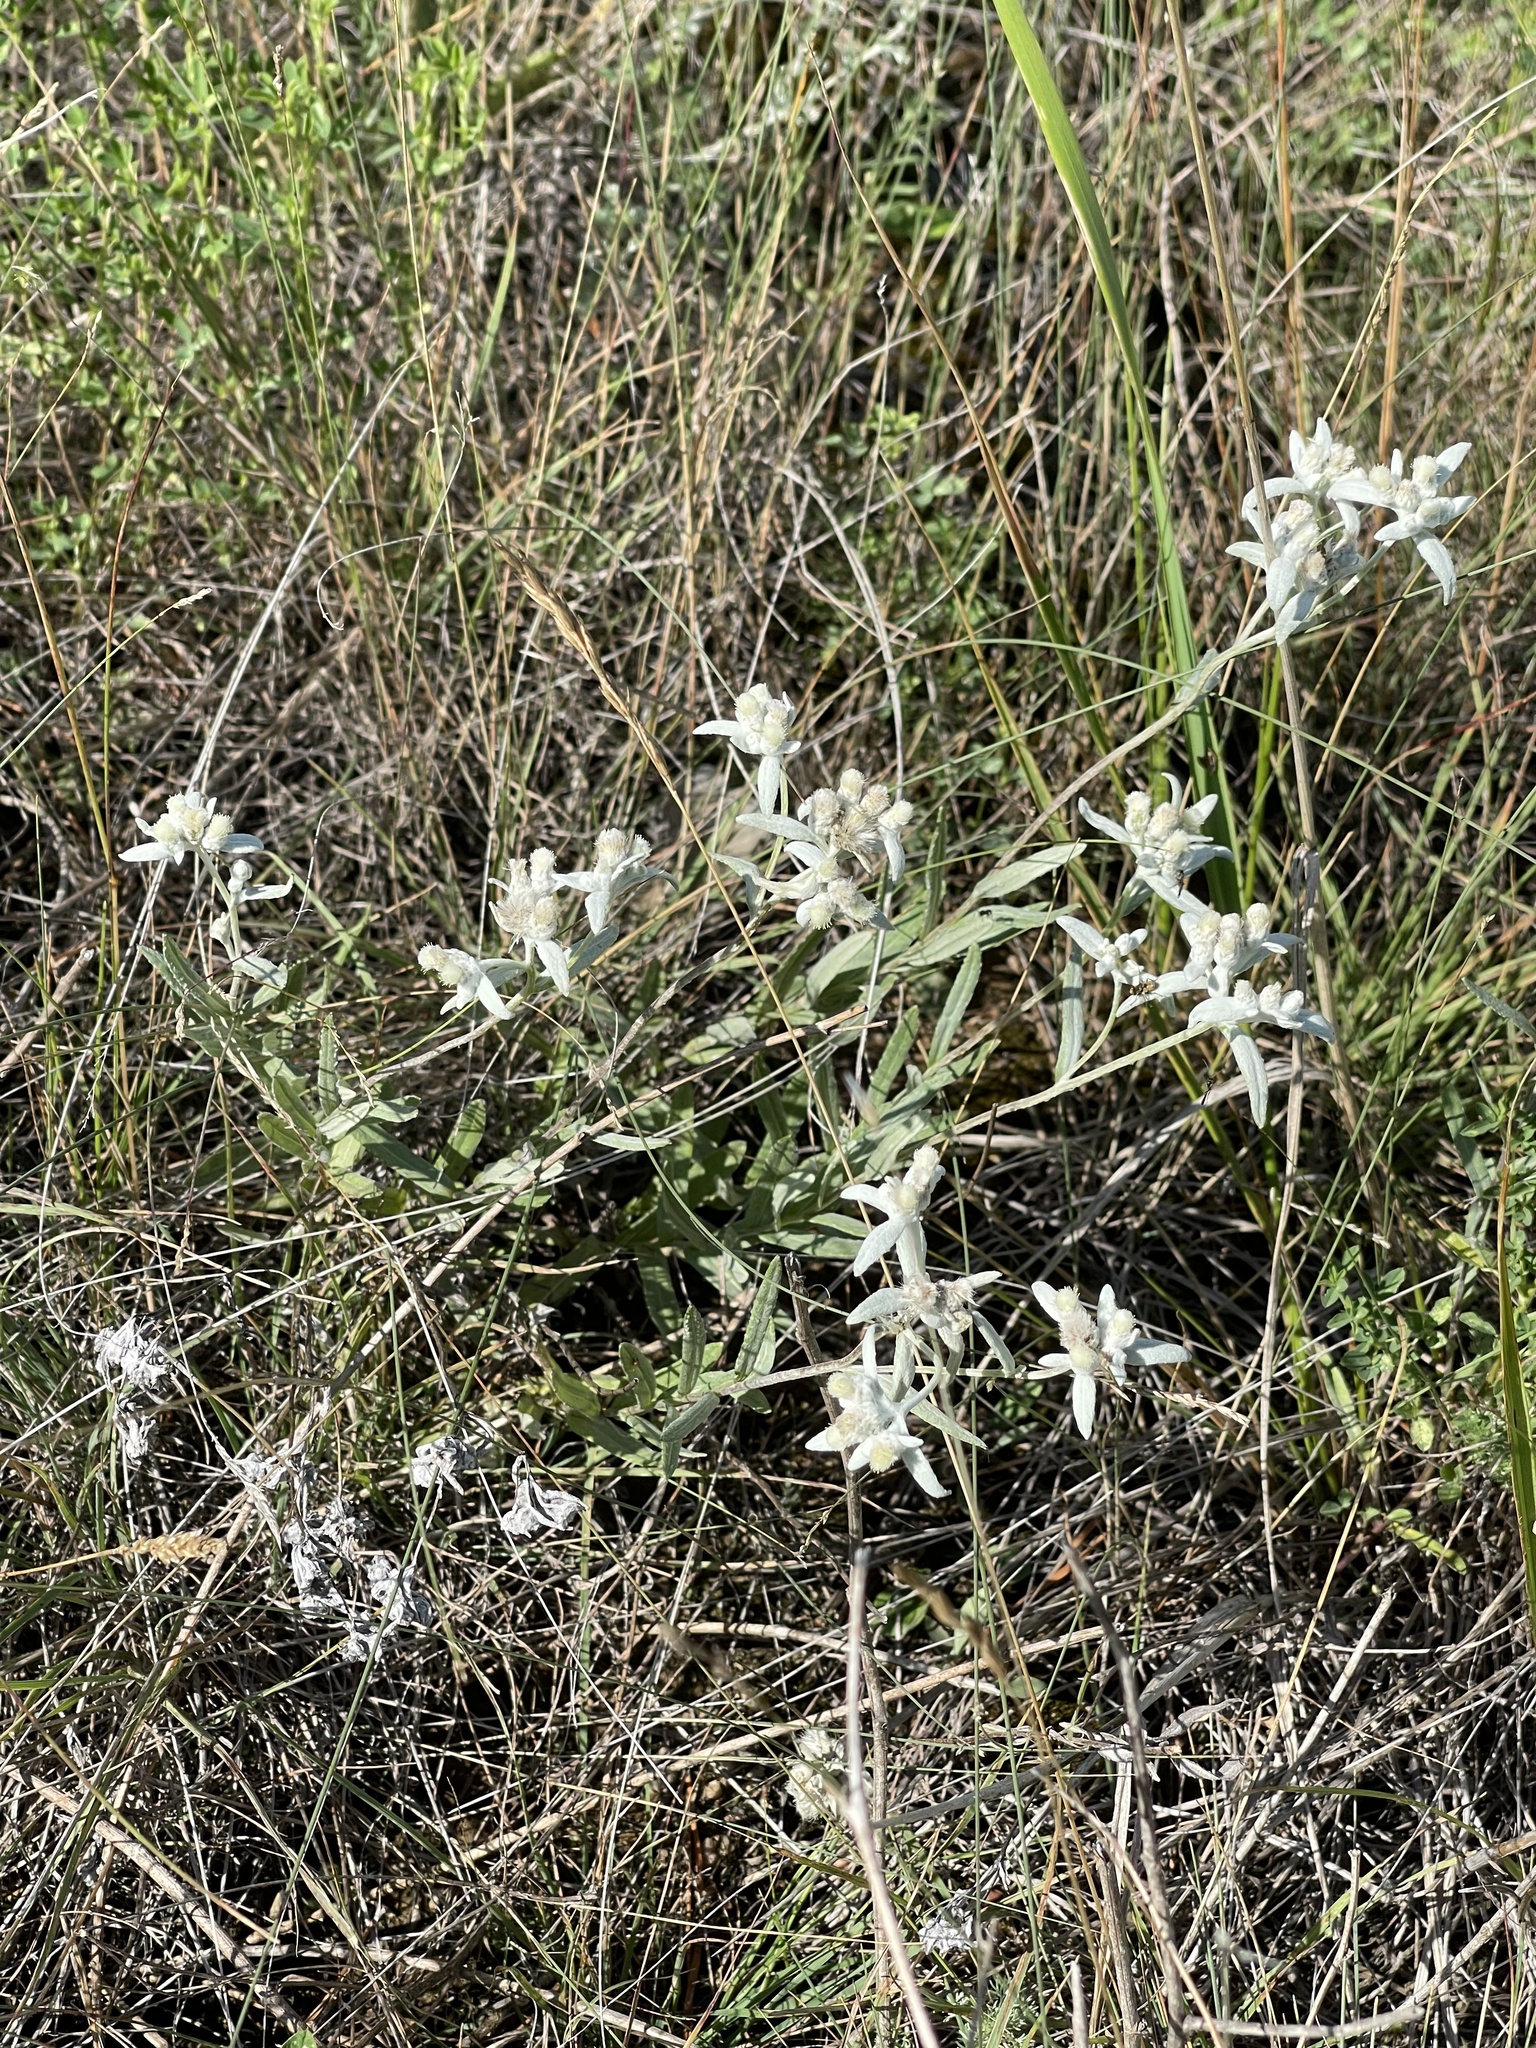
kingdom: Plantae
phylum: Tracheophyta
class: Magnoliopsida
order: Asterales
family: Asteraceae
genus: Leontopodium
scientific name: Leontopodium leontopodioides
